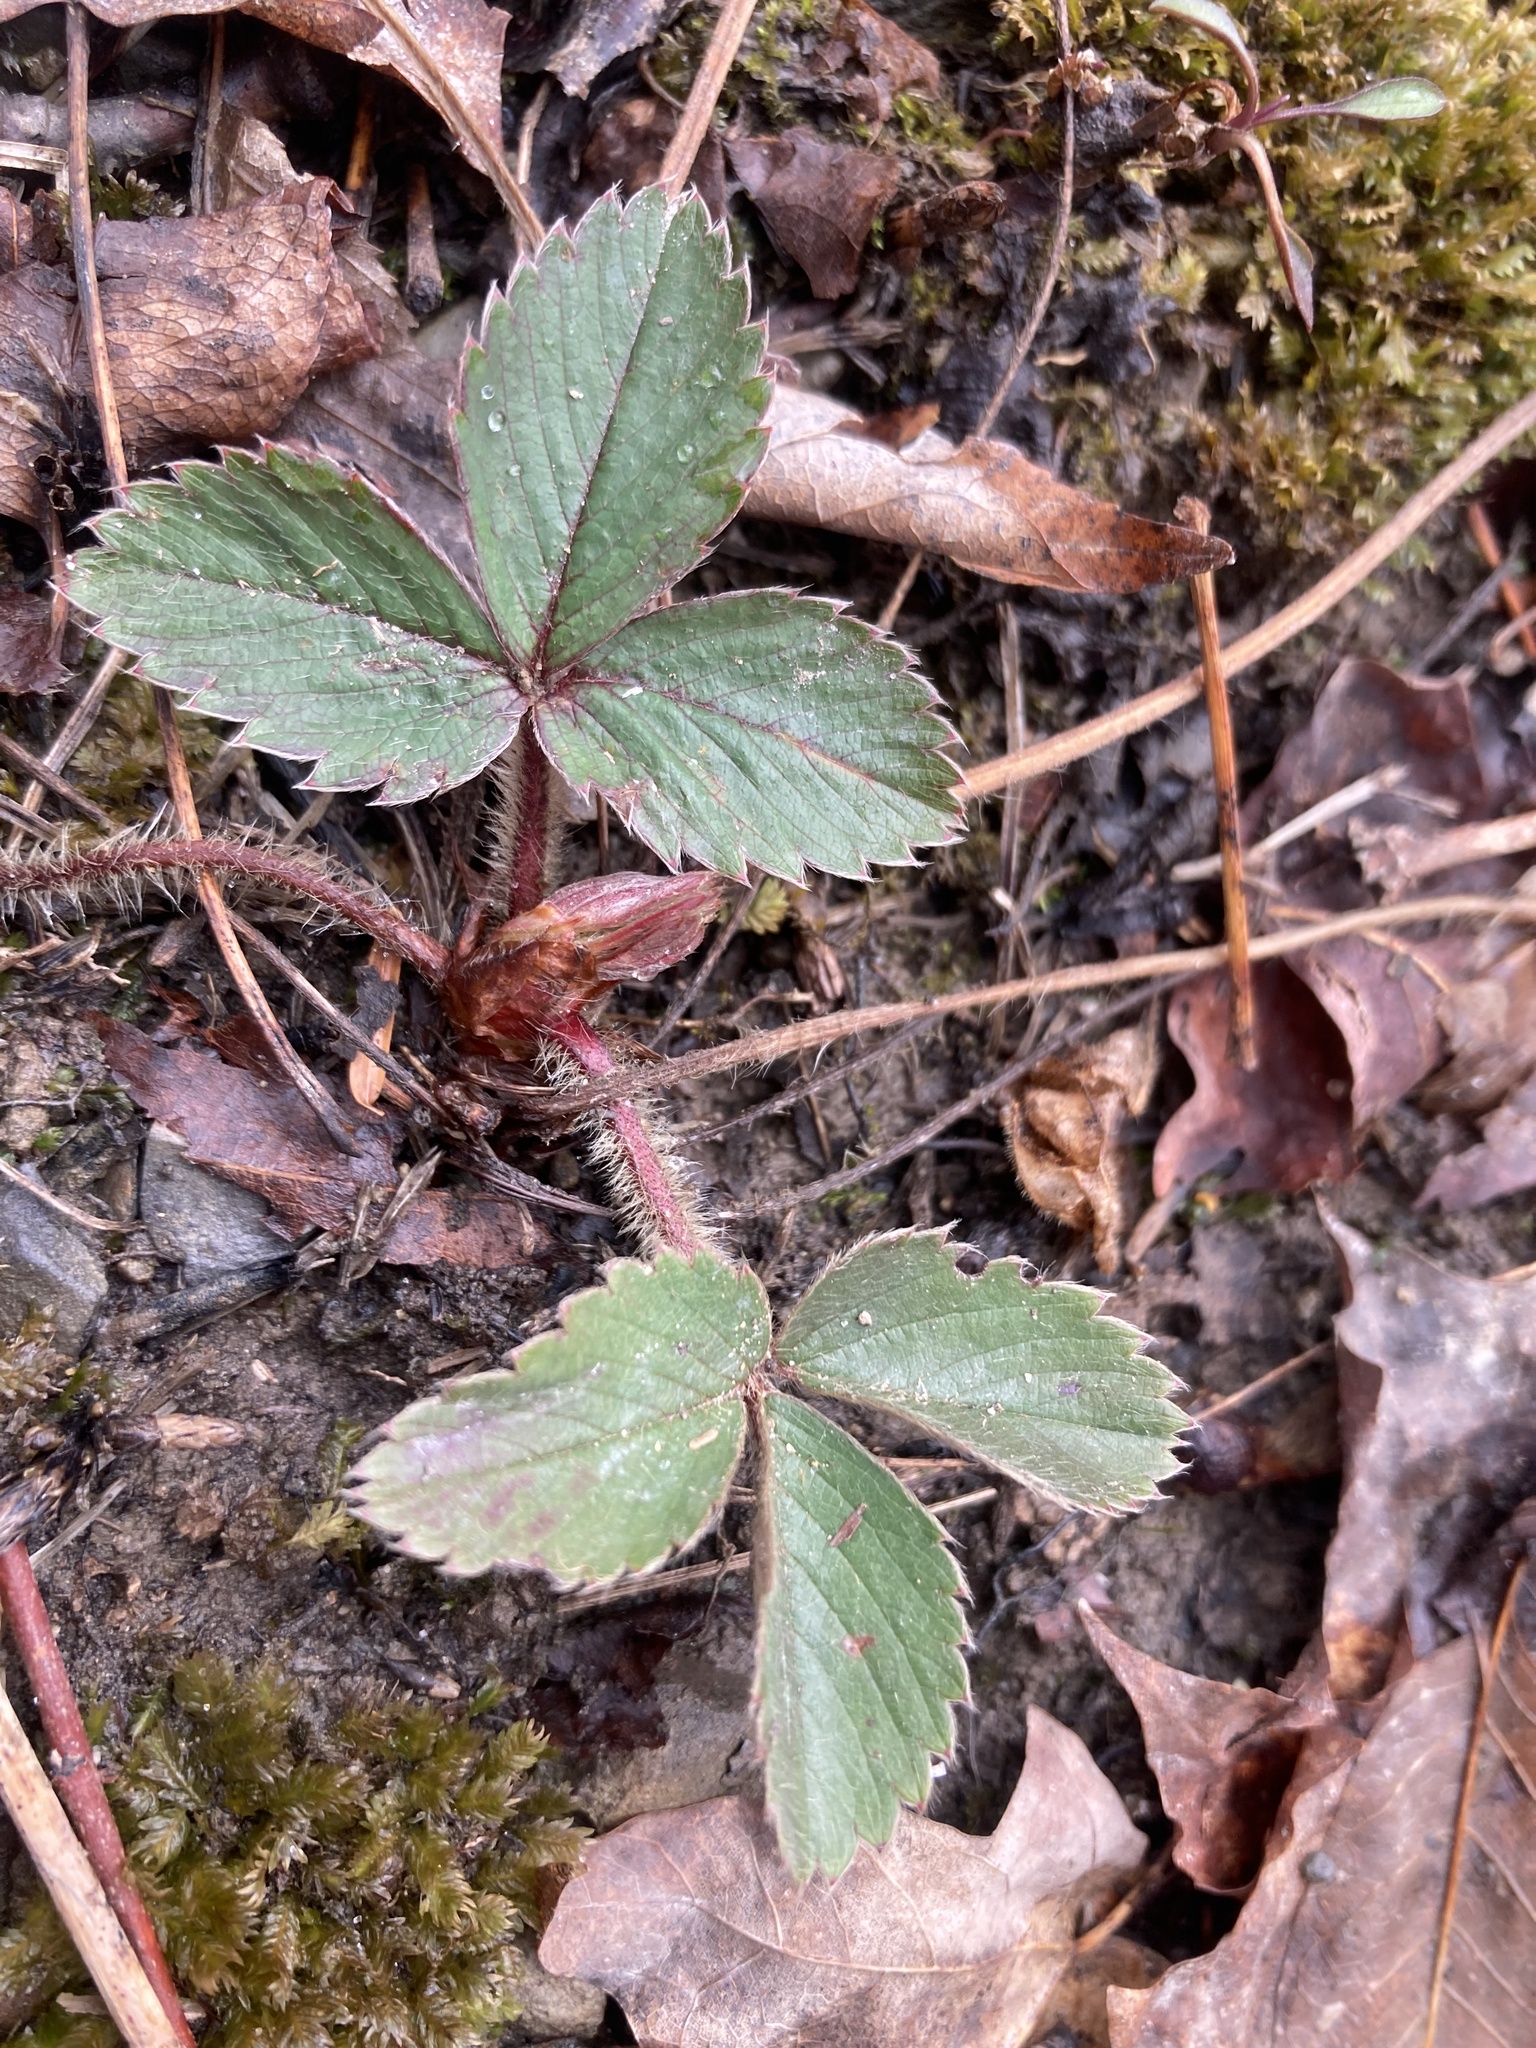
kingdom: Plantae
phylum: Tracheophyta
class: Magnoliopsida
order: Rosales
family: Rosaceae
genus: Fragaria
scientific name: Fragaria virginiana
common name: Thickleaved wild strawberry
